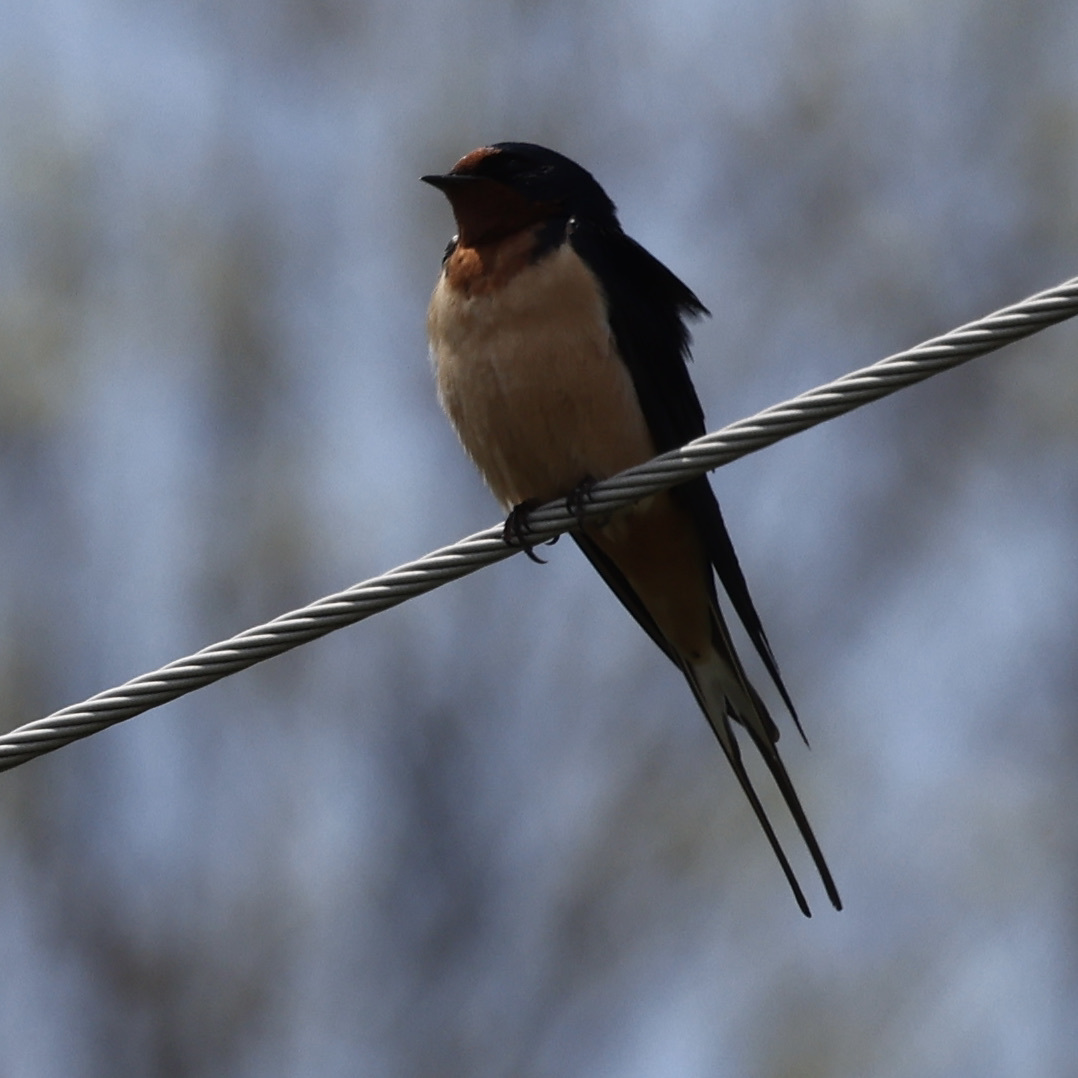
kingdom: Animalia
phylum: Chordata
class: Aves
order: Passeriformes
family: Hirundinidae
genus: Hirundo
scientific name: Hirundo rustica
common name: Barn swallow
